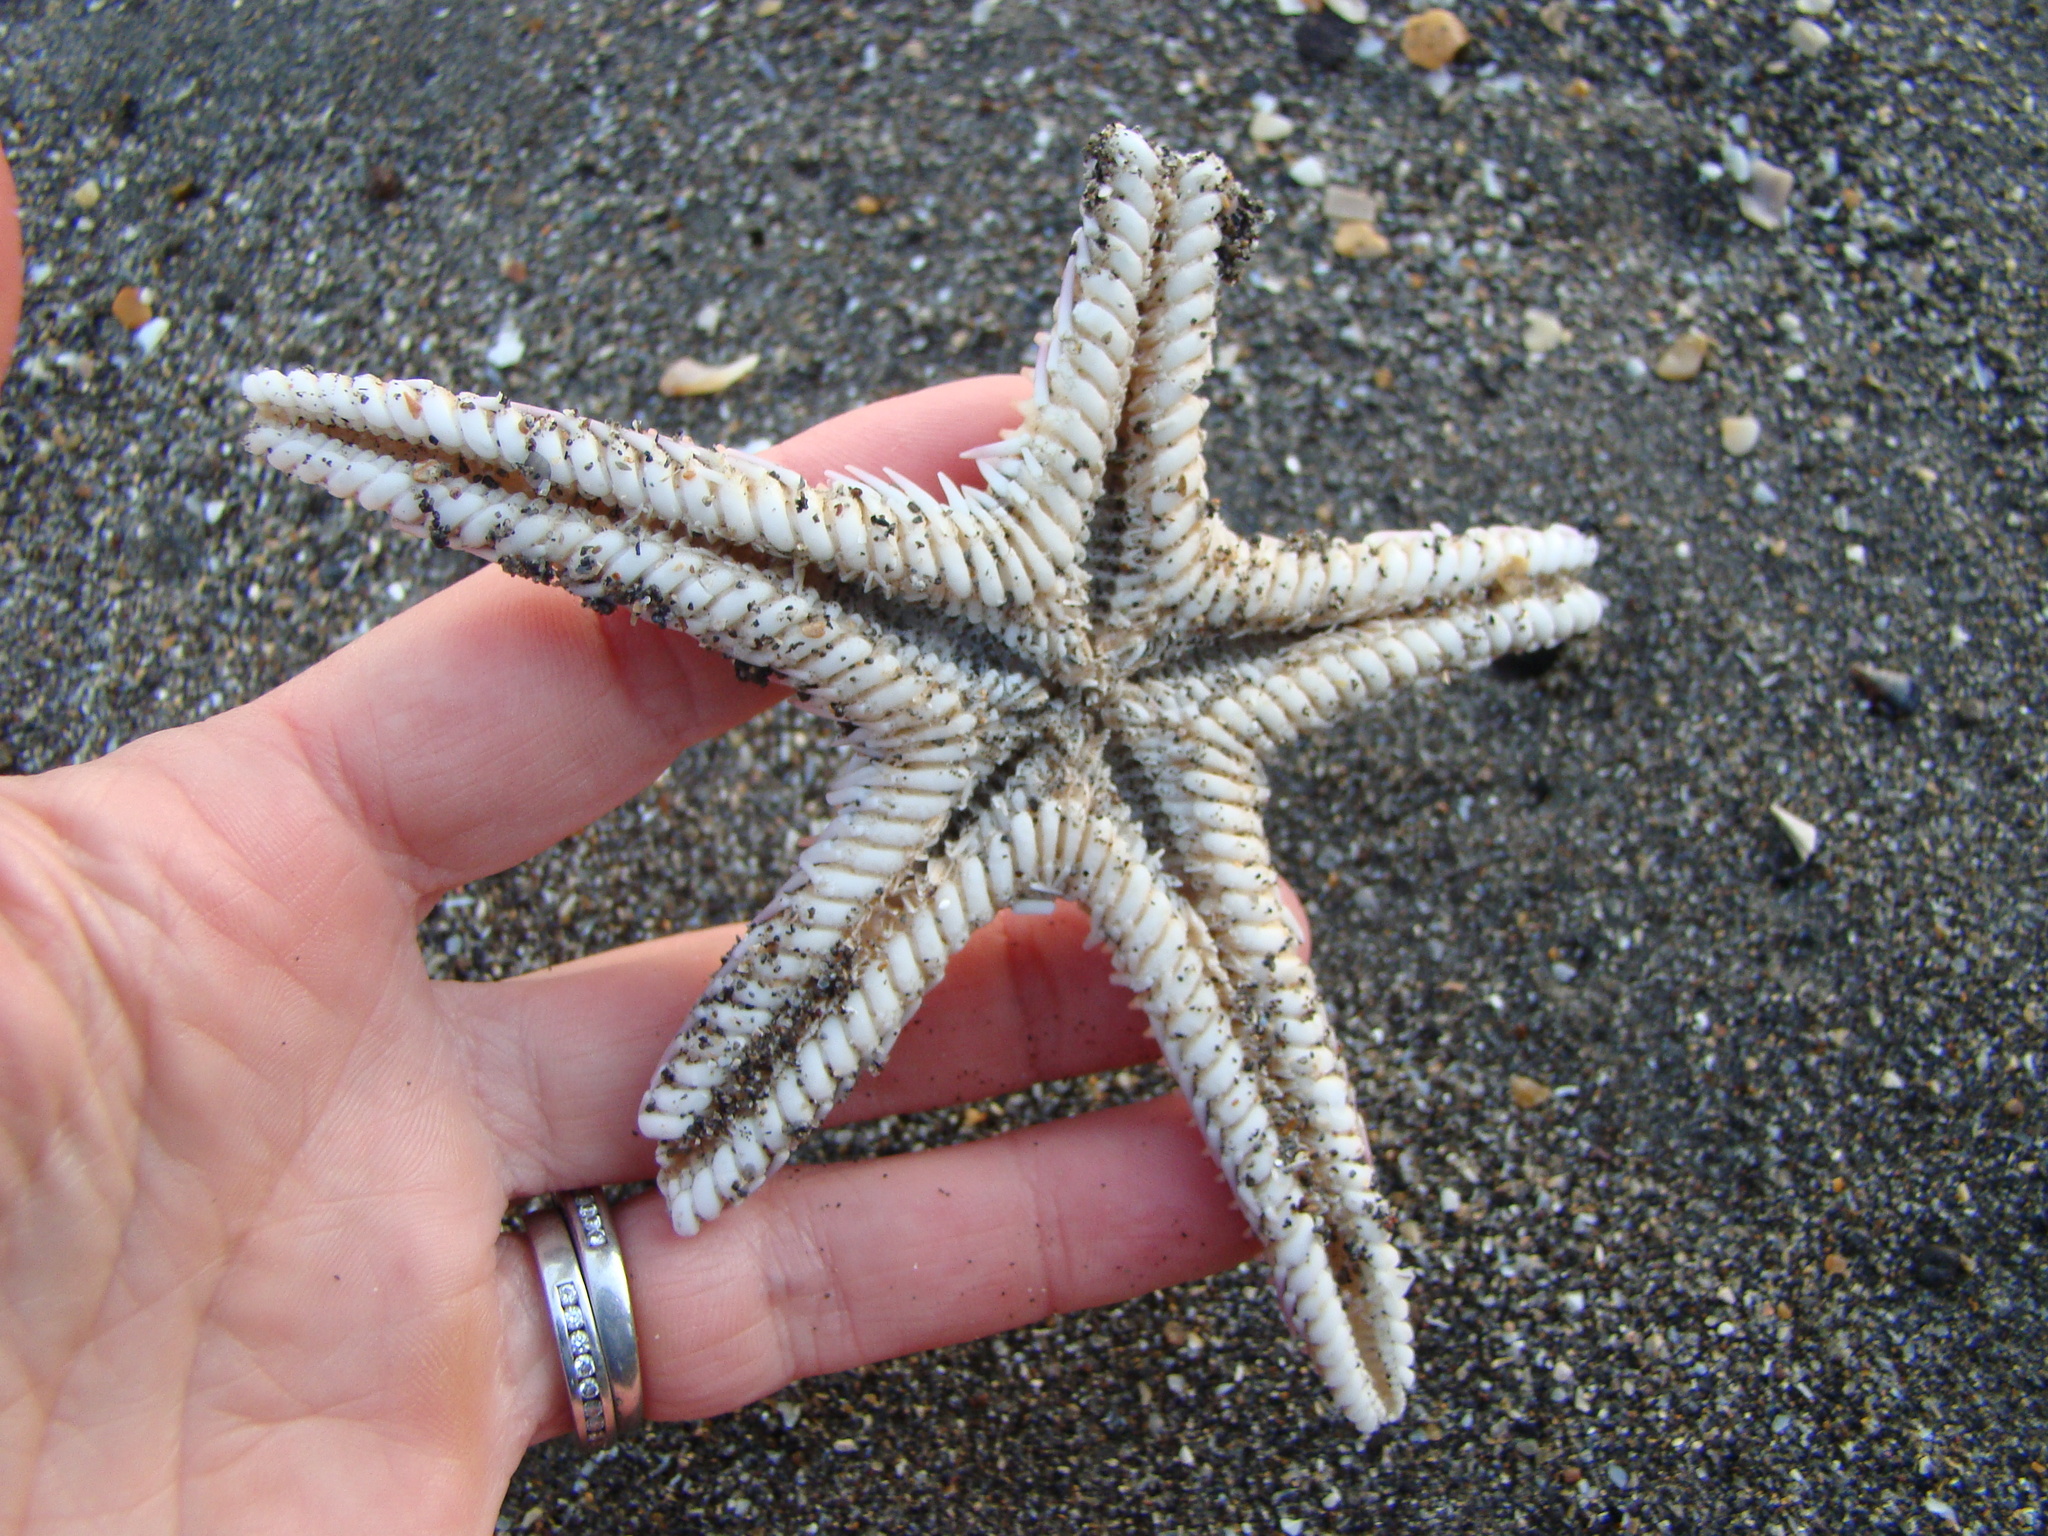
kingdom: Animalia
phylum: Echinodermata
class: Asteroidea
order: Paxillosida
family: Astropectinidae
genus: Astropecten
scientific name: Astropecten polyacanthus
